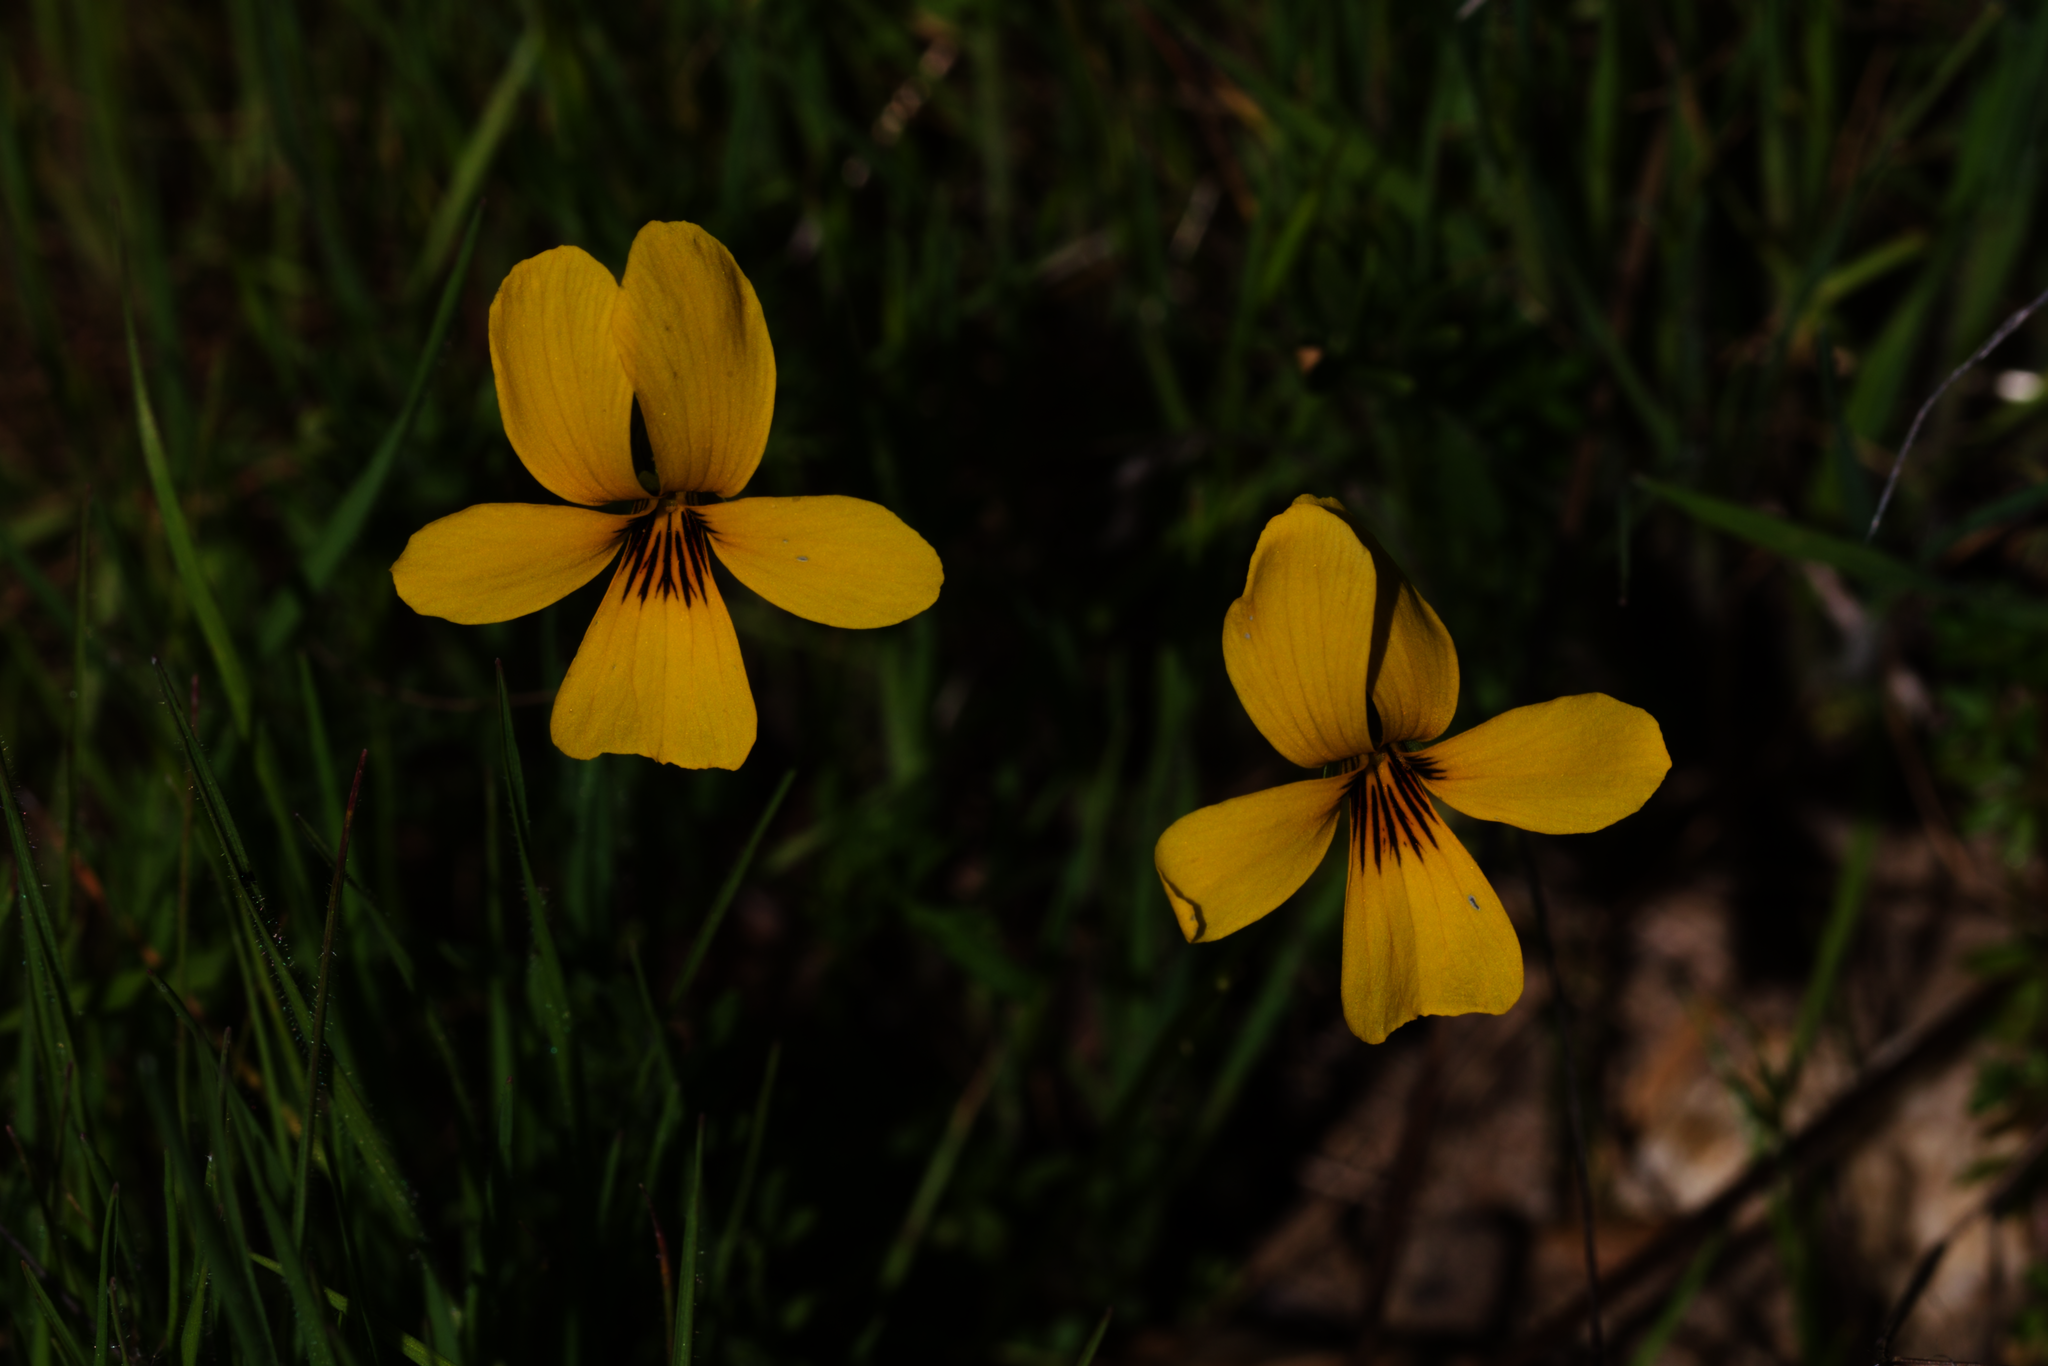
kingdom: Plantae
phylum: Tracheophyta
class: Magnoliopsida
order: Malpighiales
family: Violaceae
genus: Viola
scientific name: Viola pedunculata
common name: California golden violet
